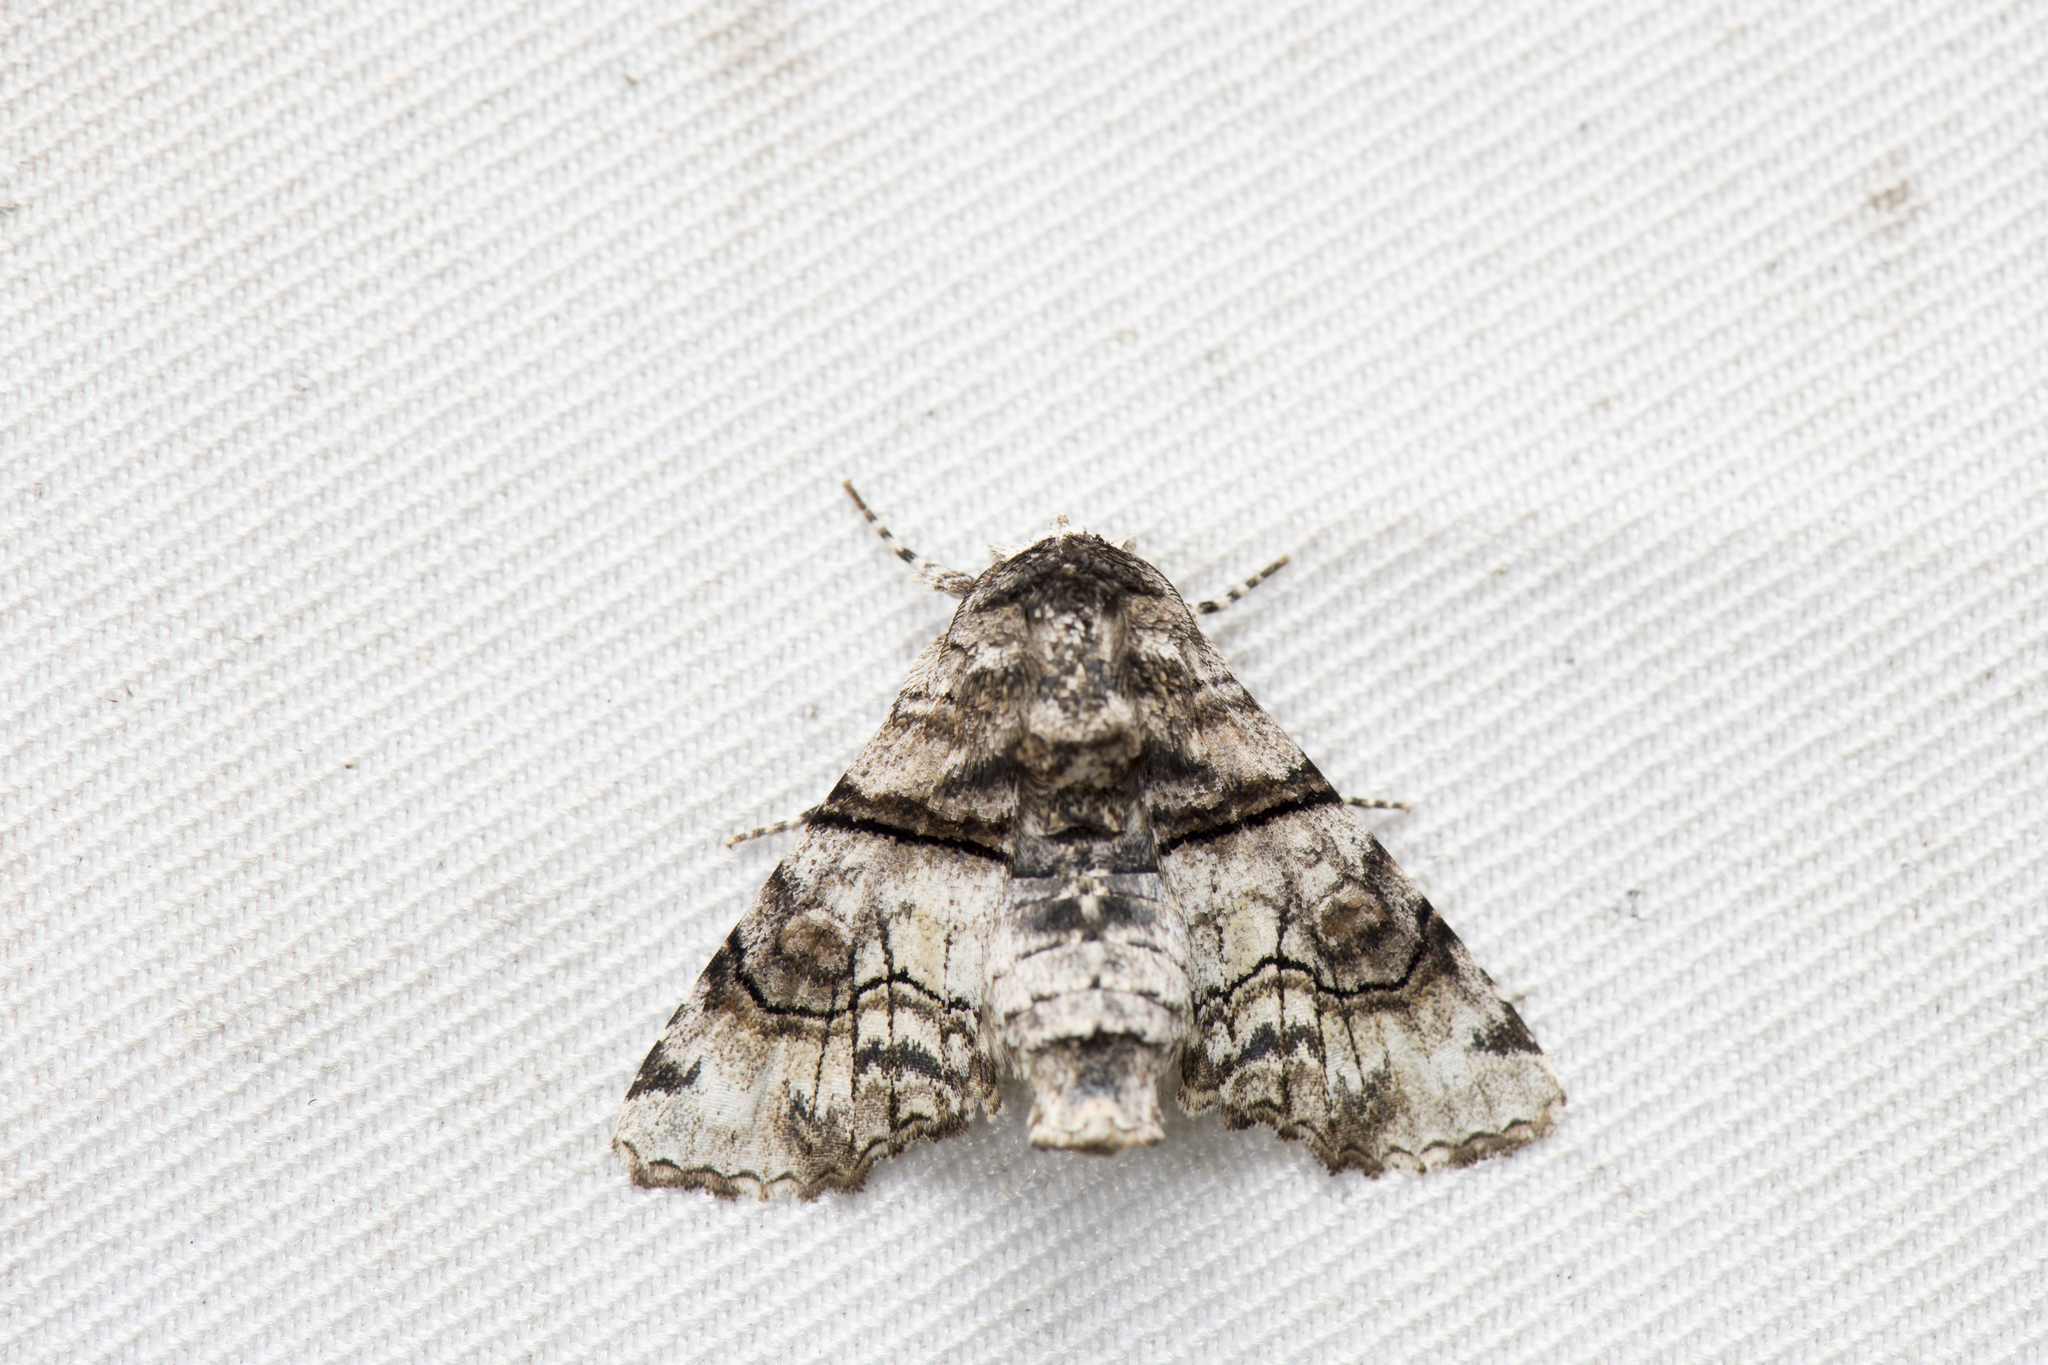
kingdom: Animalia
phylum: Arthropoda
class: Insecta
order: Lepidoptera
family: Euteliidae
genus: Aplotelia
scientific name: Aplotelia diplographa
